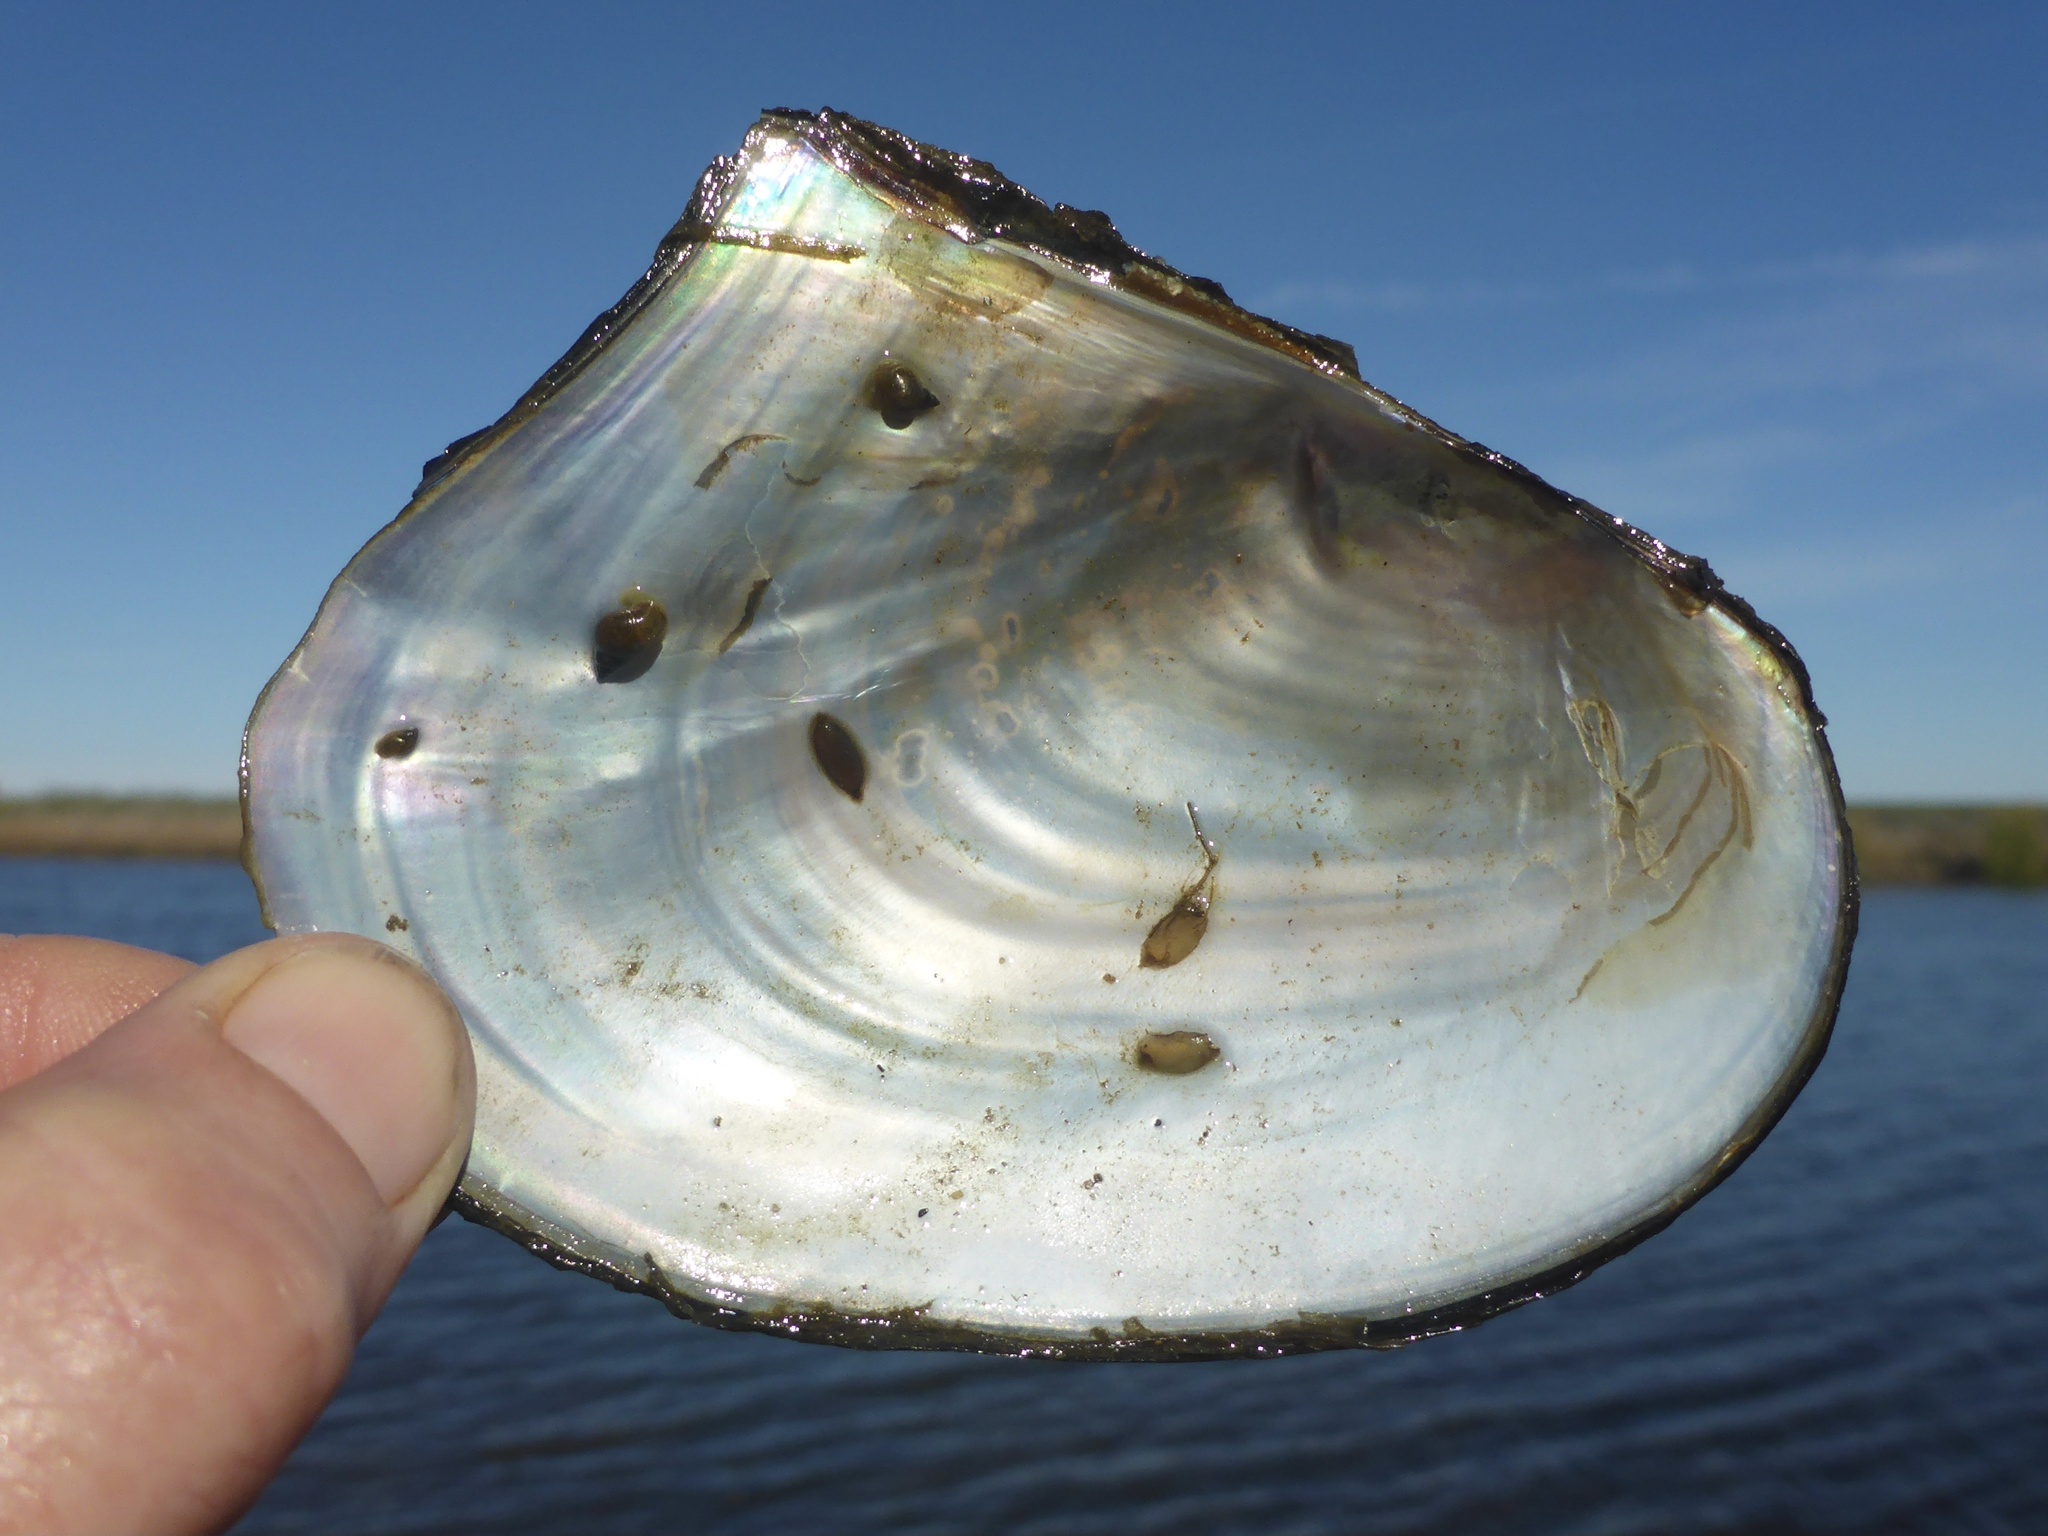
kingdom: Animalia
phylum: Mollusca
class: Bivalvia
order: Unionida
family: Unionidae
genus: Anodonta
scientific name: Anodonta nuttalliana
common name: Winged floater
